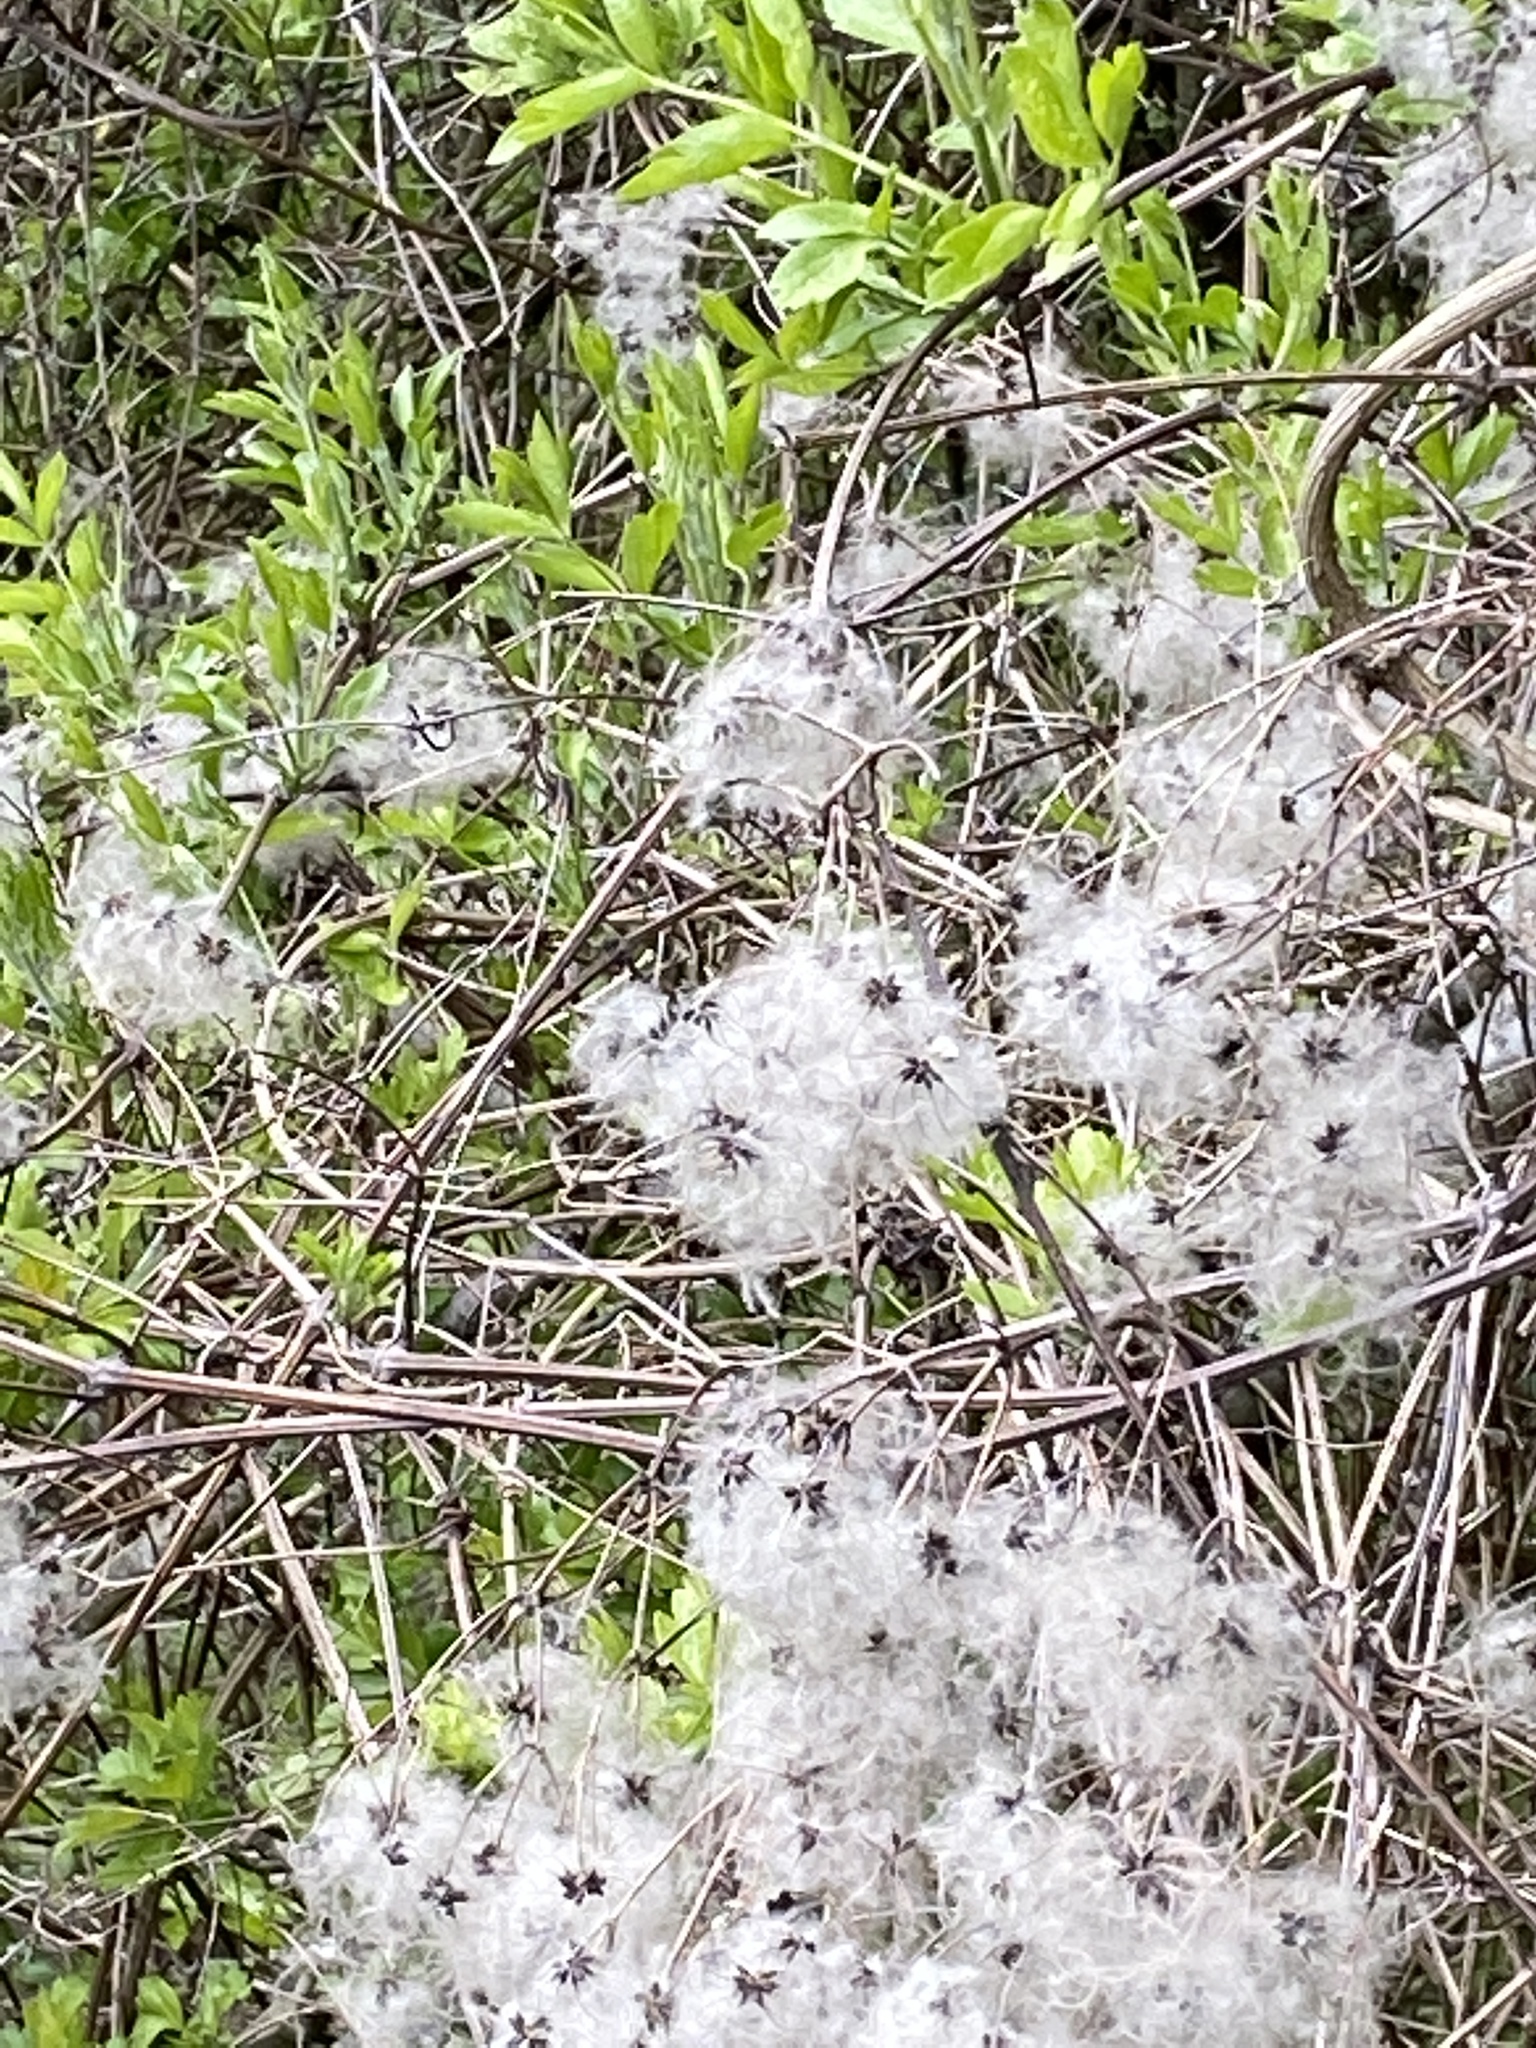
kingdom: Plantae
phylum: Tracheophyta
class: Magnoliopsida
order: Ranunculales
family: Ranunculaceae
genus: Clematis
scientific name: Clematis vitalba
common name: Evergreen clematis
